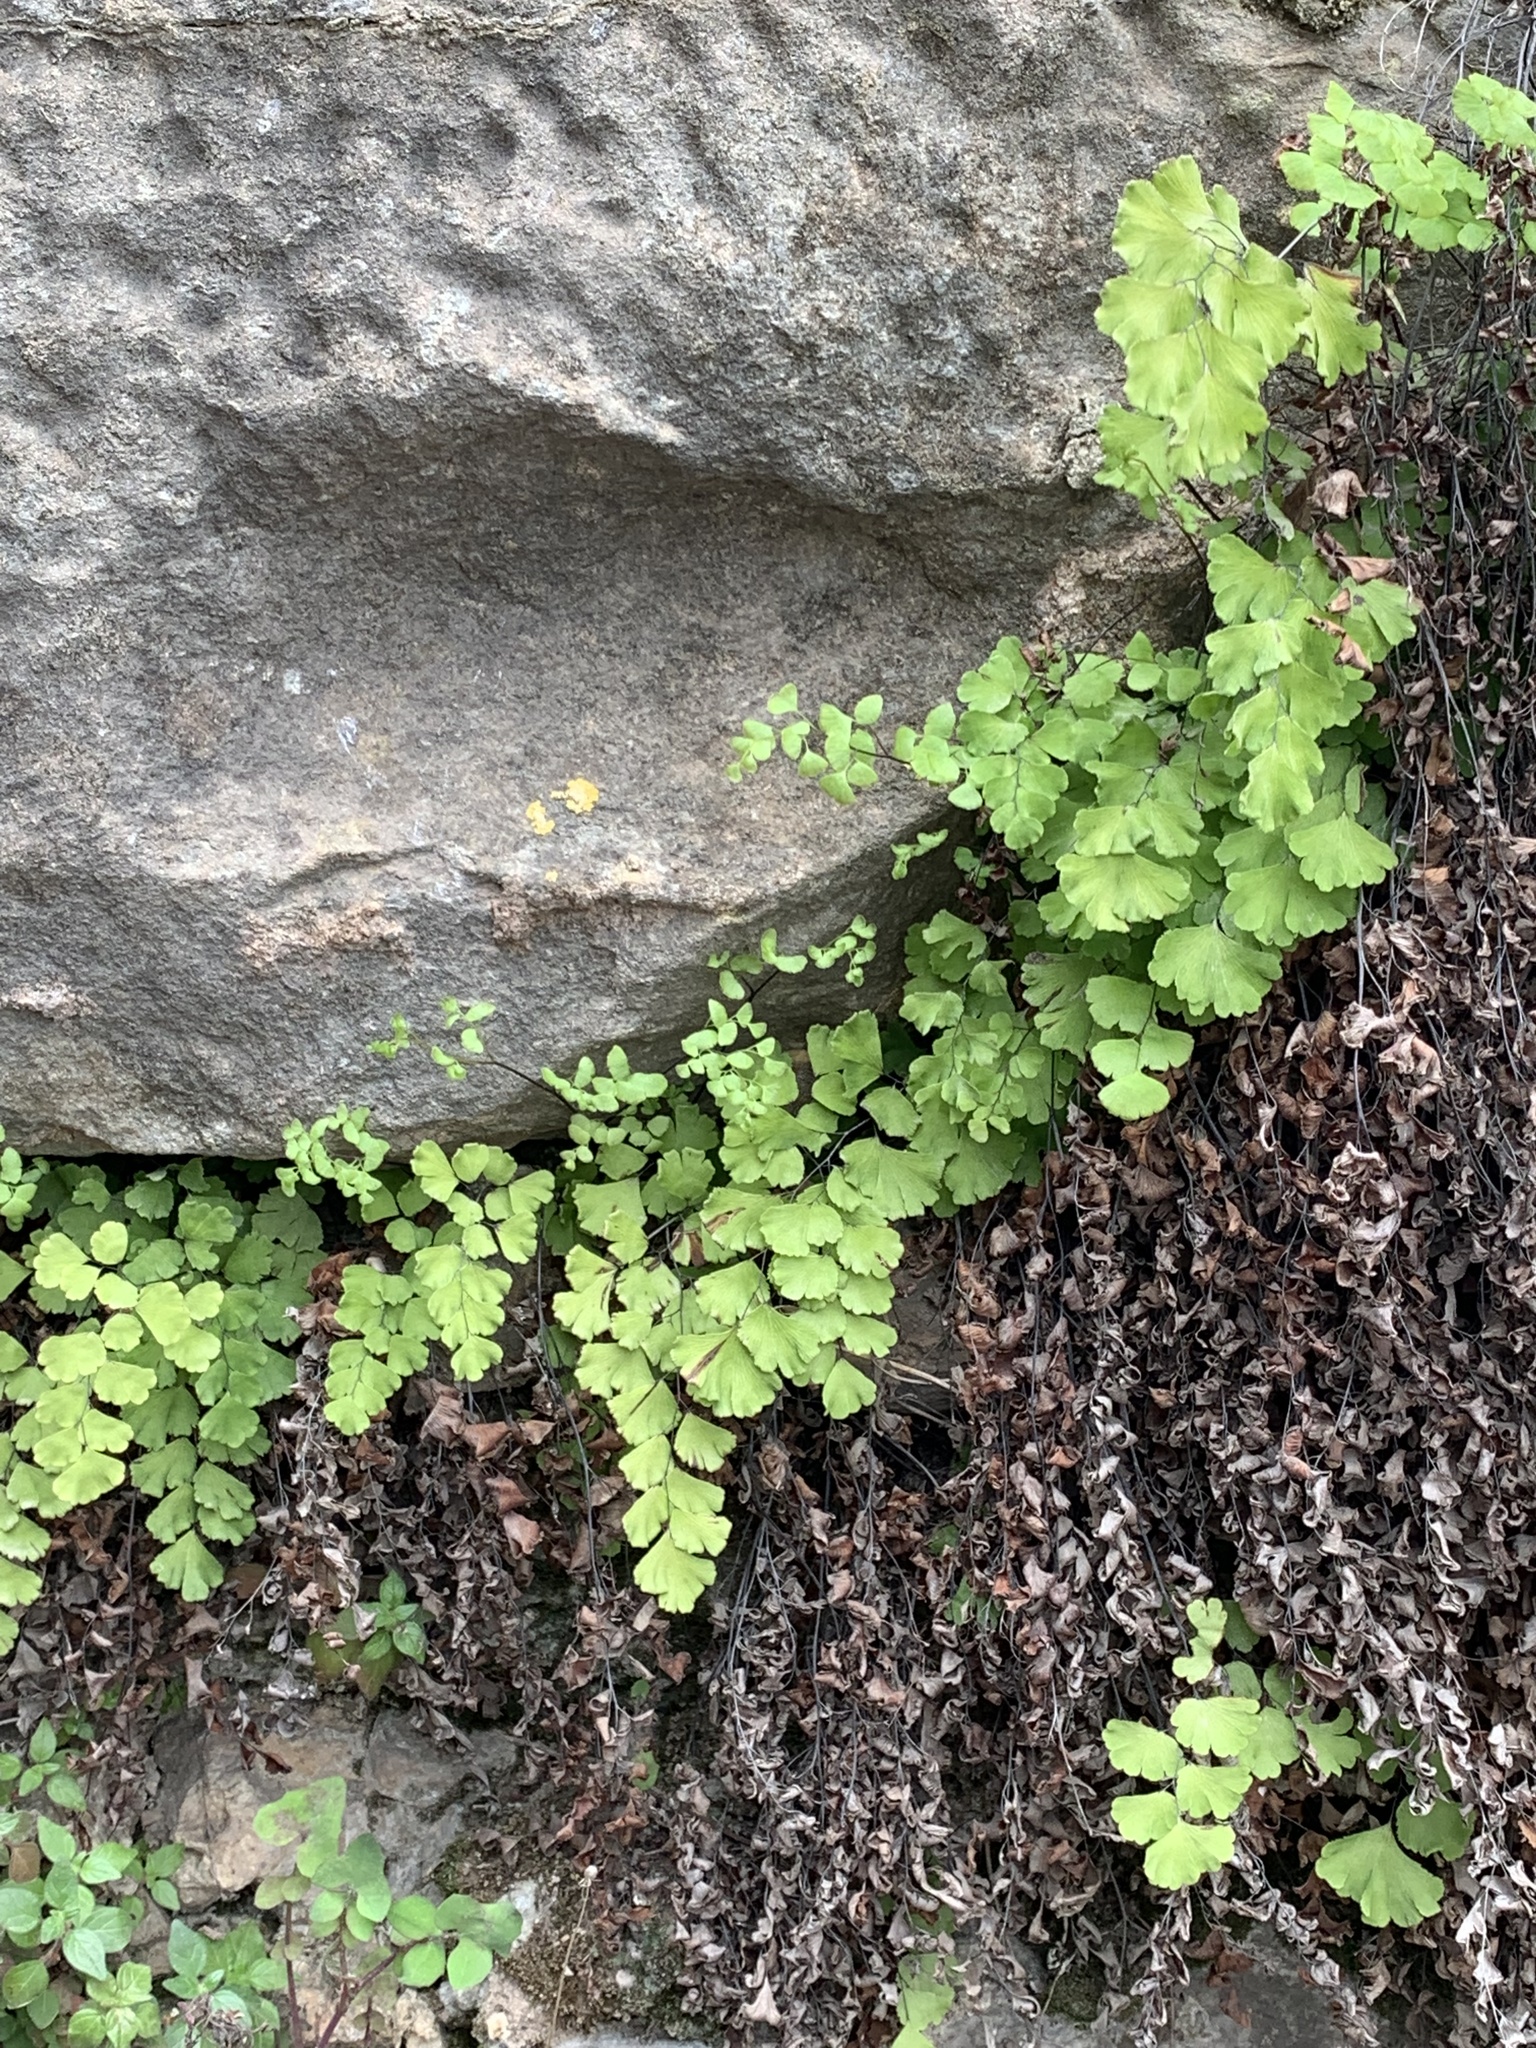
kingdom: Plantae
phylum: Tracheophyta
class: Polypodiopsida
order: Polypodiales
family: Pteridaceae
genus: Adiantum
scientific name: Adiantum capillus-veneris
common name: Maidenhair fern
